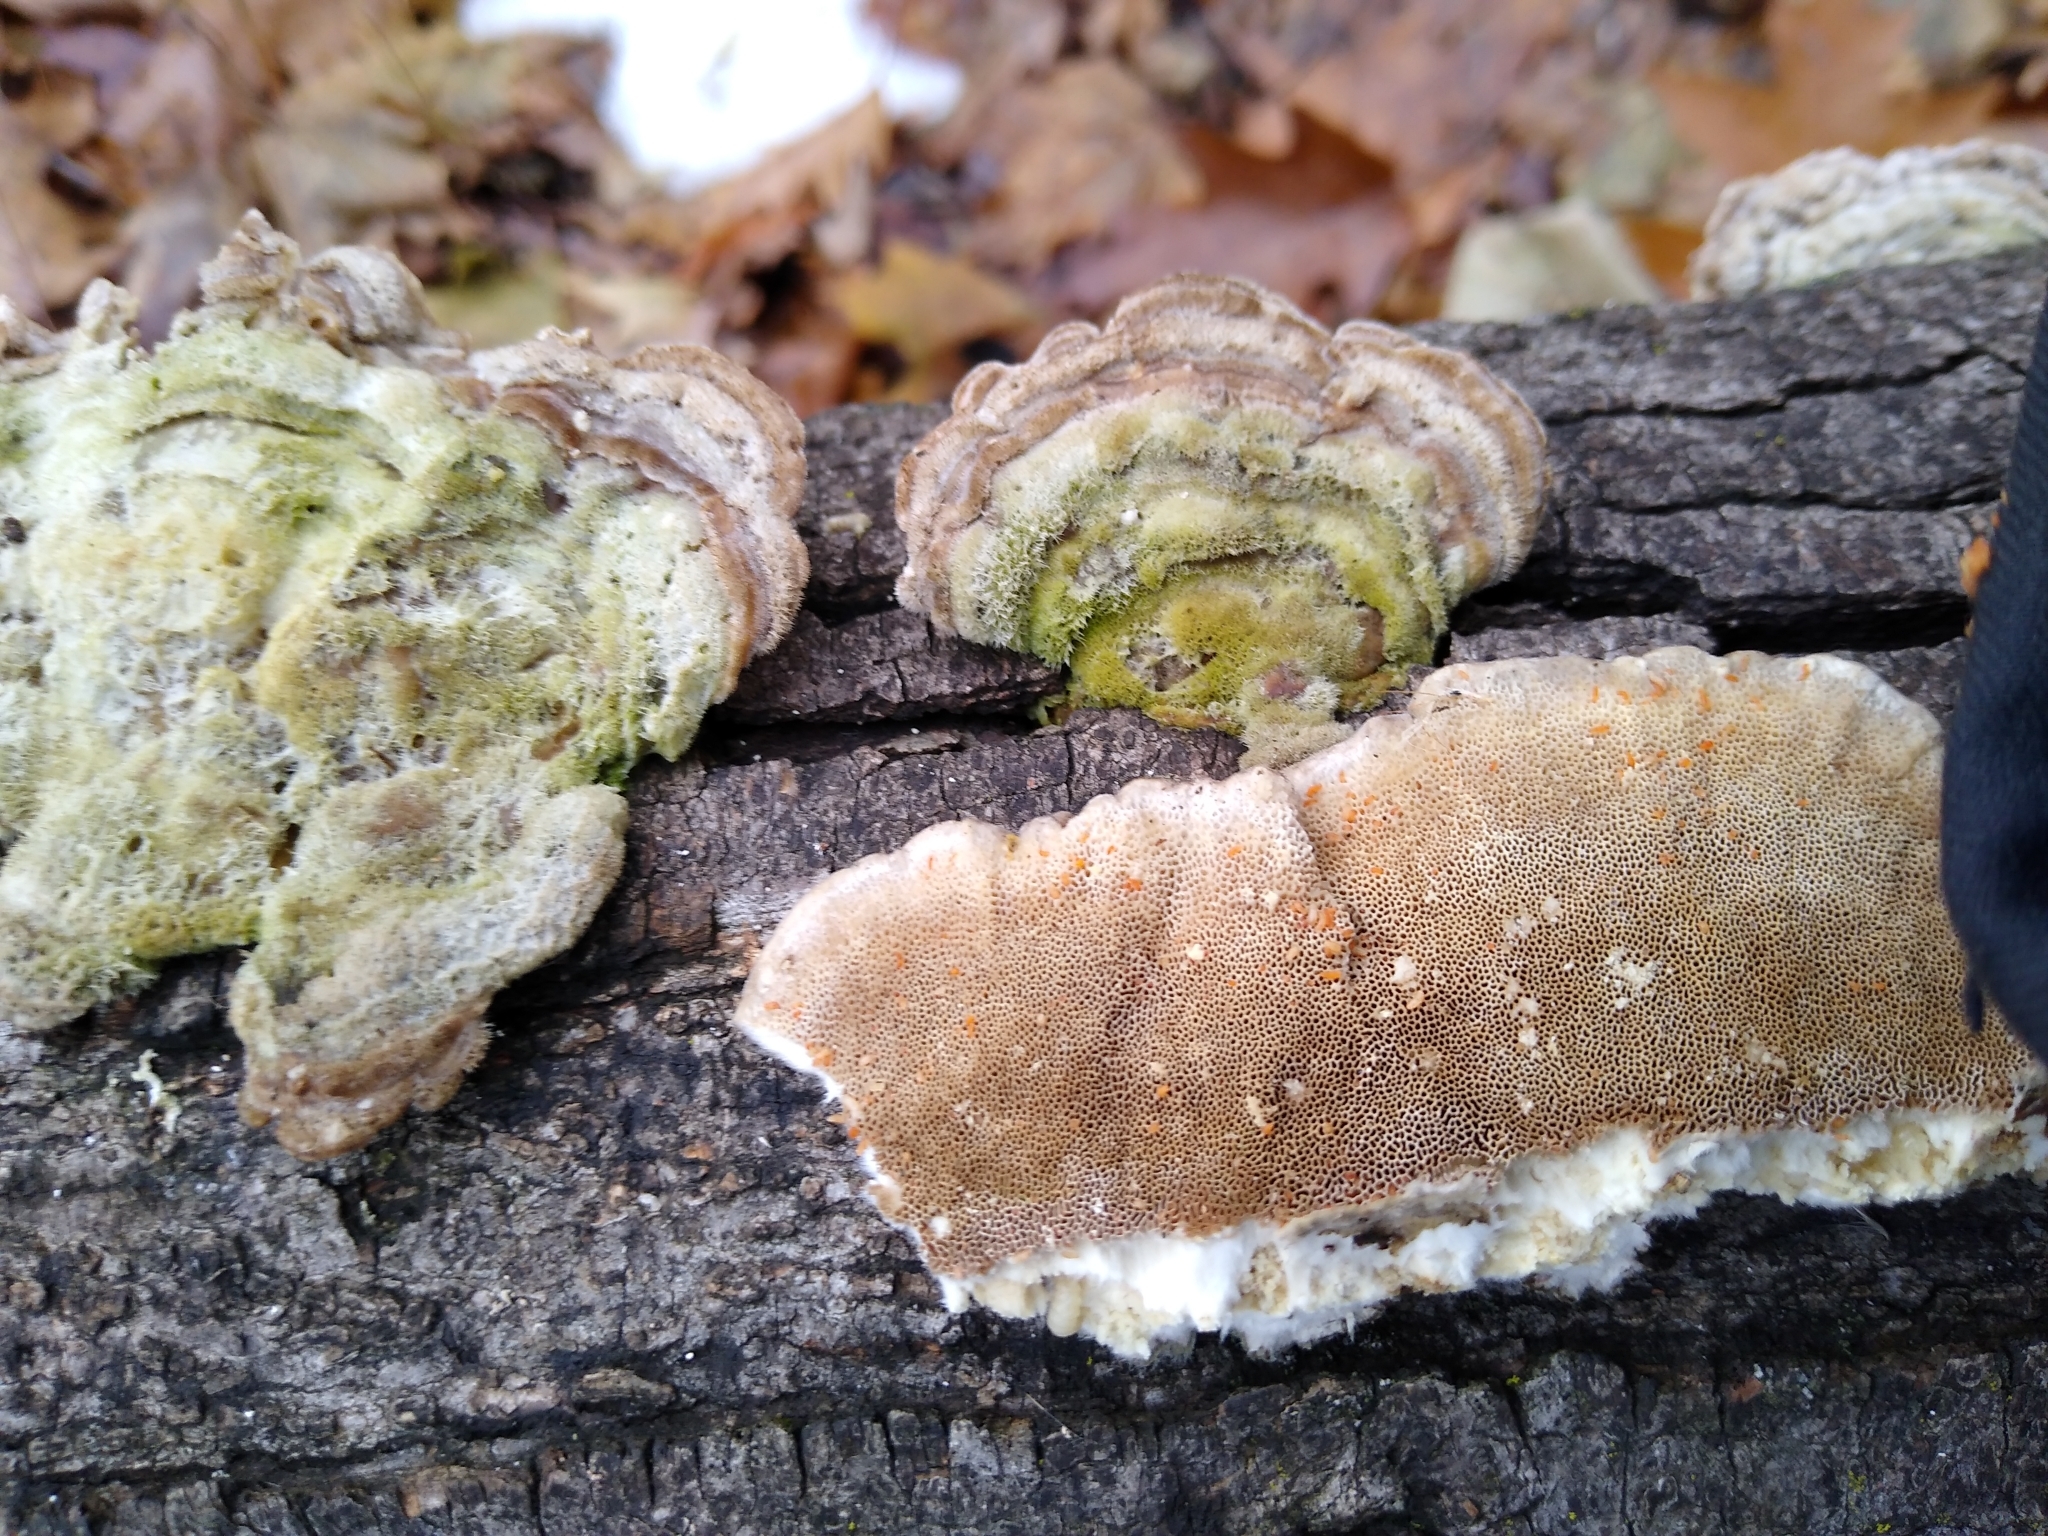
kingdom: Fungi
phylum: Basidiomycota
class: Agaricomycetes
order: Polyporales
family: Polyporaceae
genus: Trametes
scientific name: Trametes hirsuta
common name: Hairy bracket
